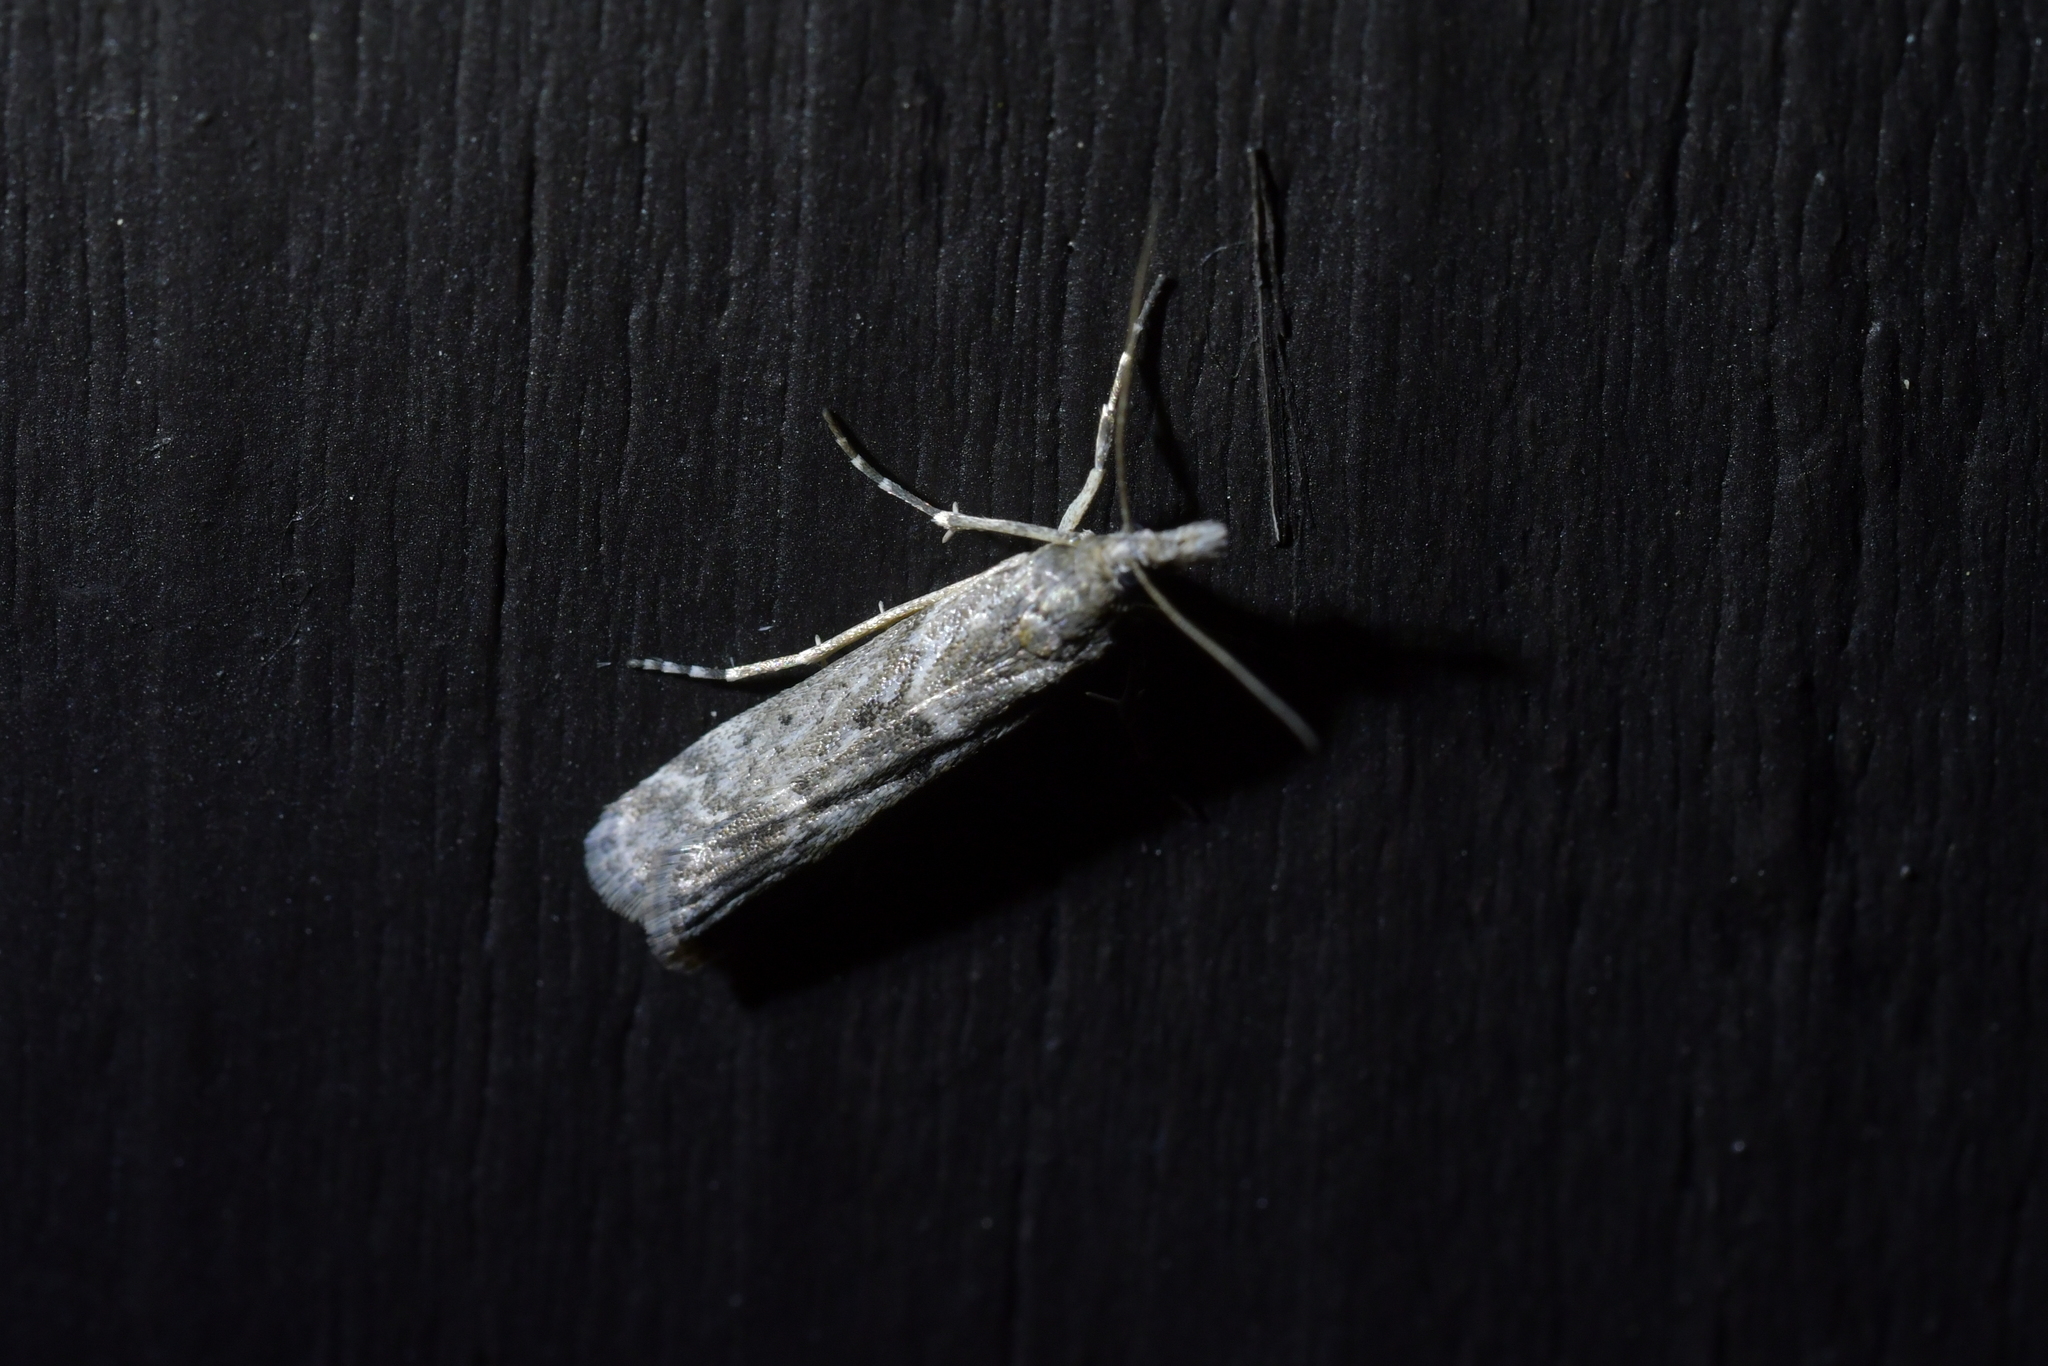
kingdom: Animalia
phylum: Arthropoda
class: Insecta
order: Lepidoptera
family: Crambidae
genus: Eudonia
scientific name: Eudonia leptalea
